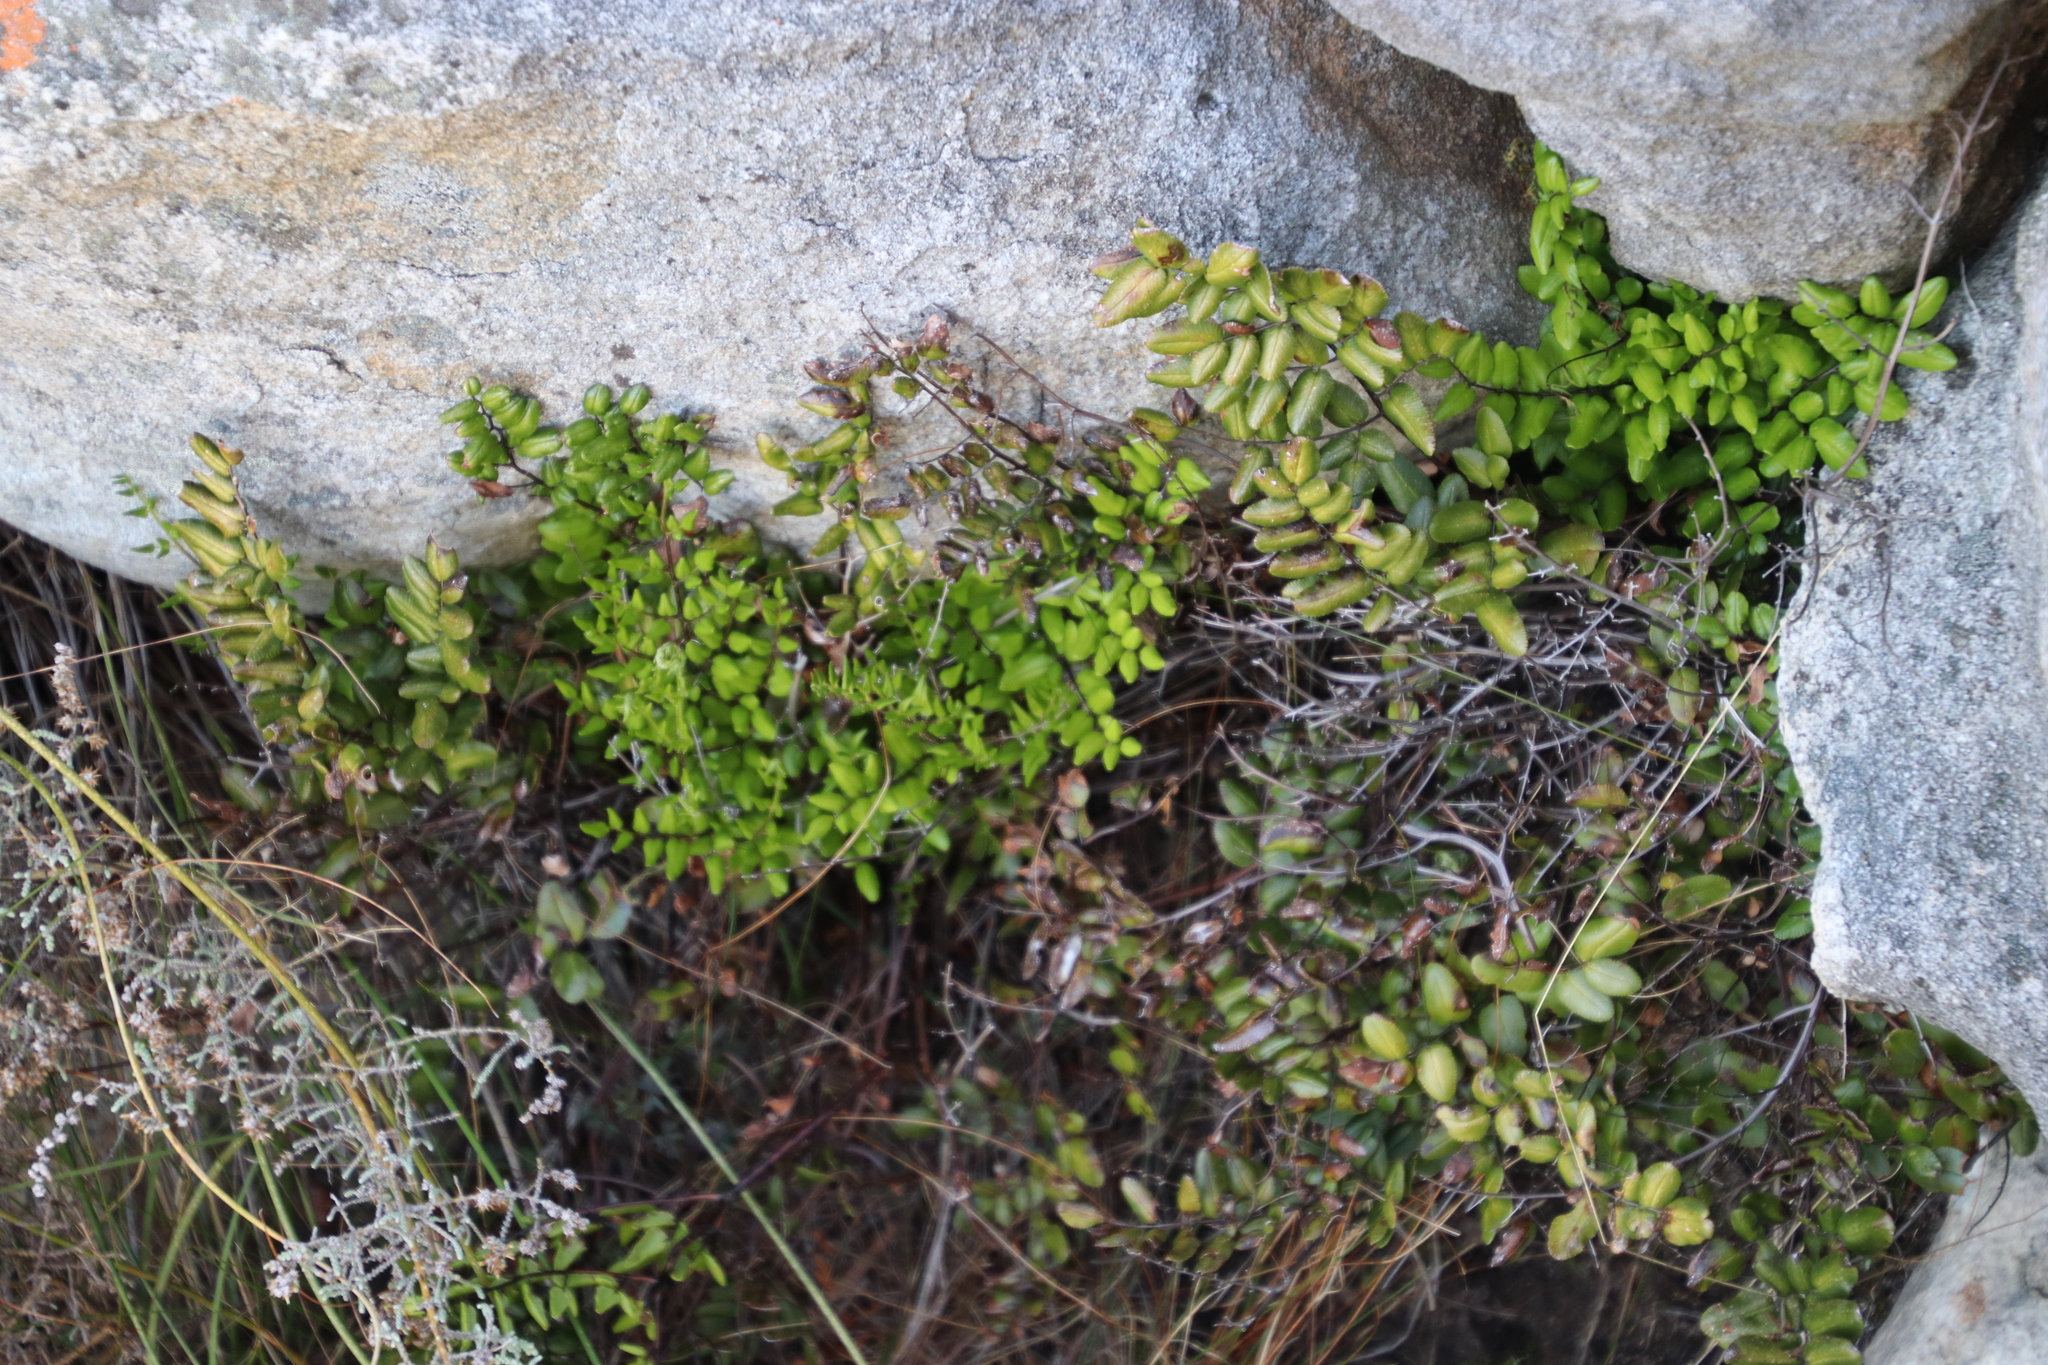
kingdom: Plantae
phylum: Tracheophyta
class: Polypodiopsida
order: Polypodiales
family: Pteridaceae
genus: Pellaea
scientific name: Pellaea pteroides
